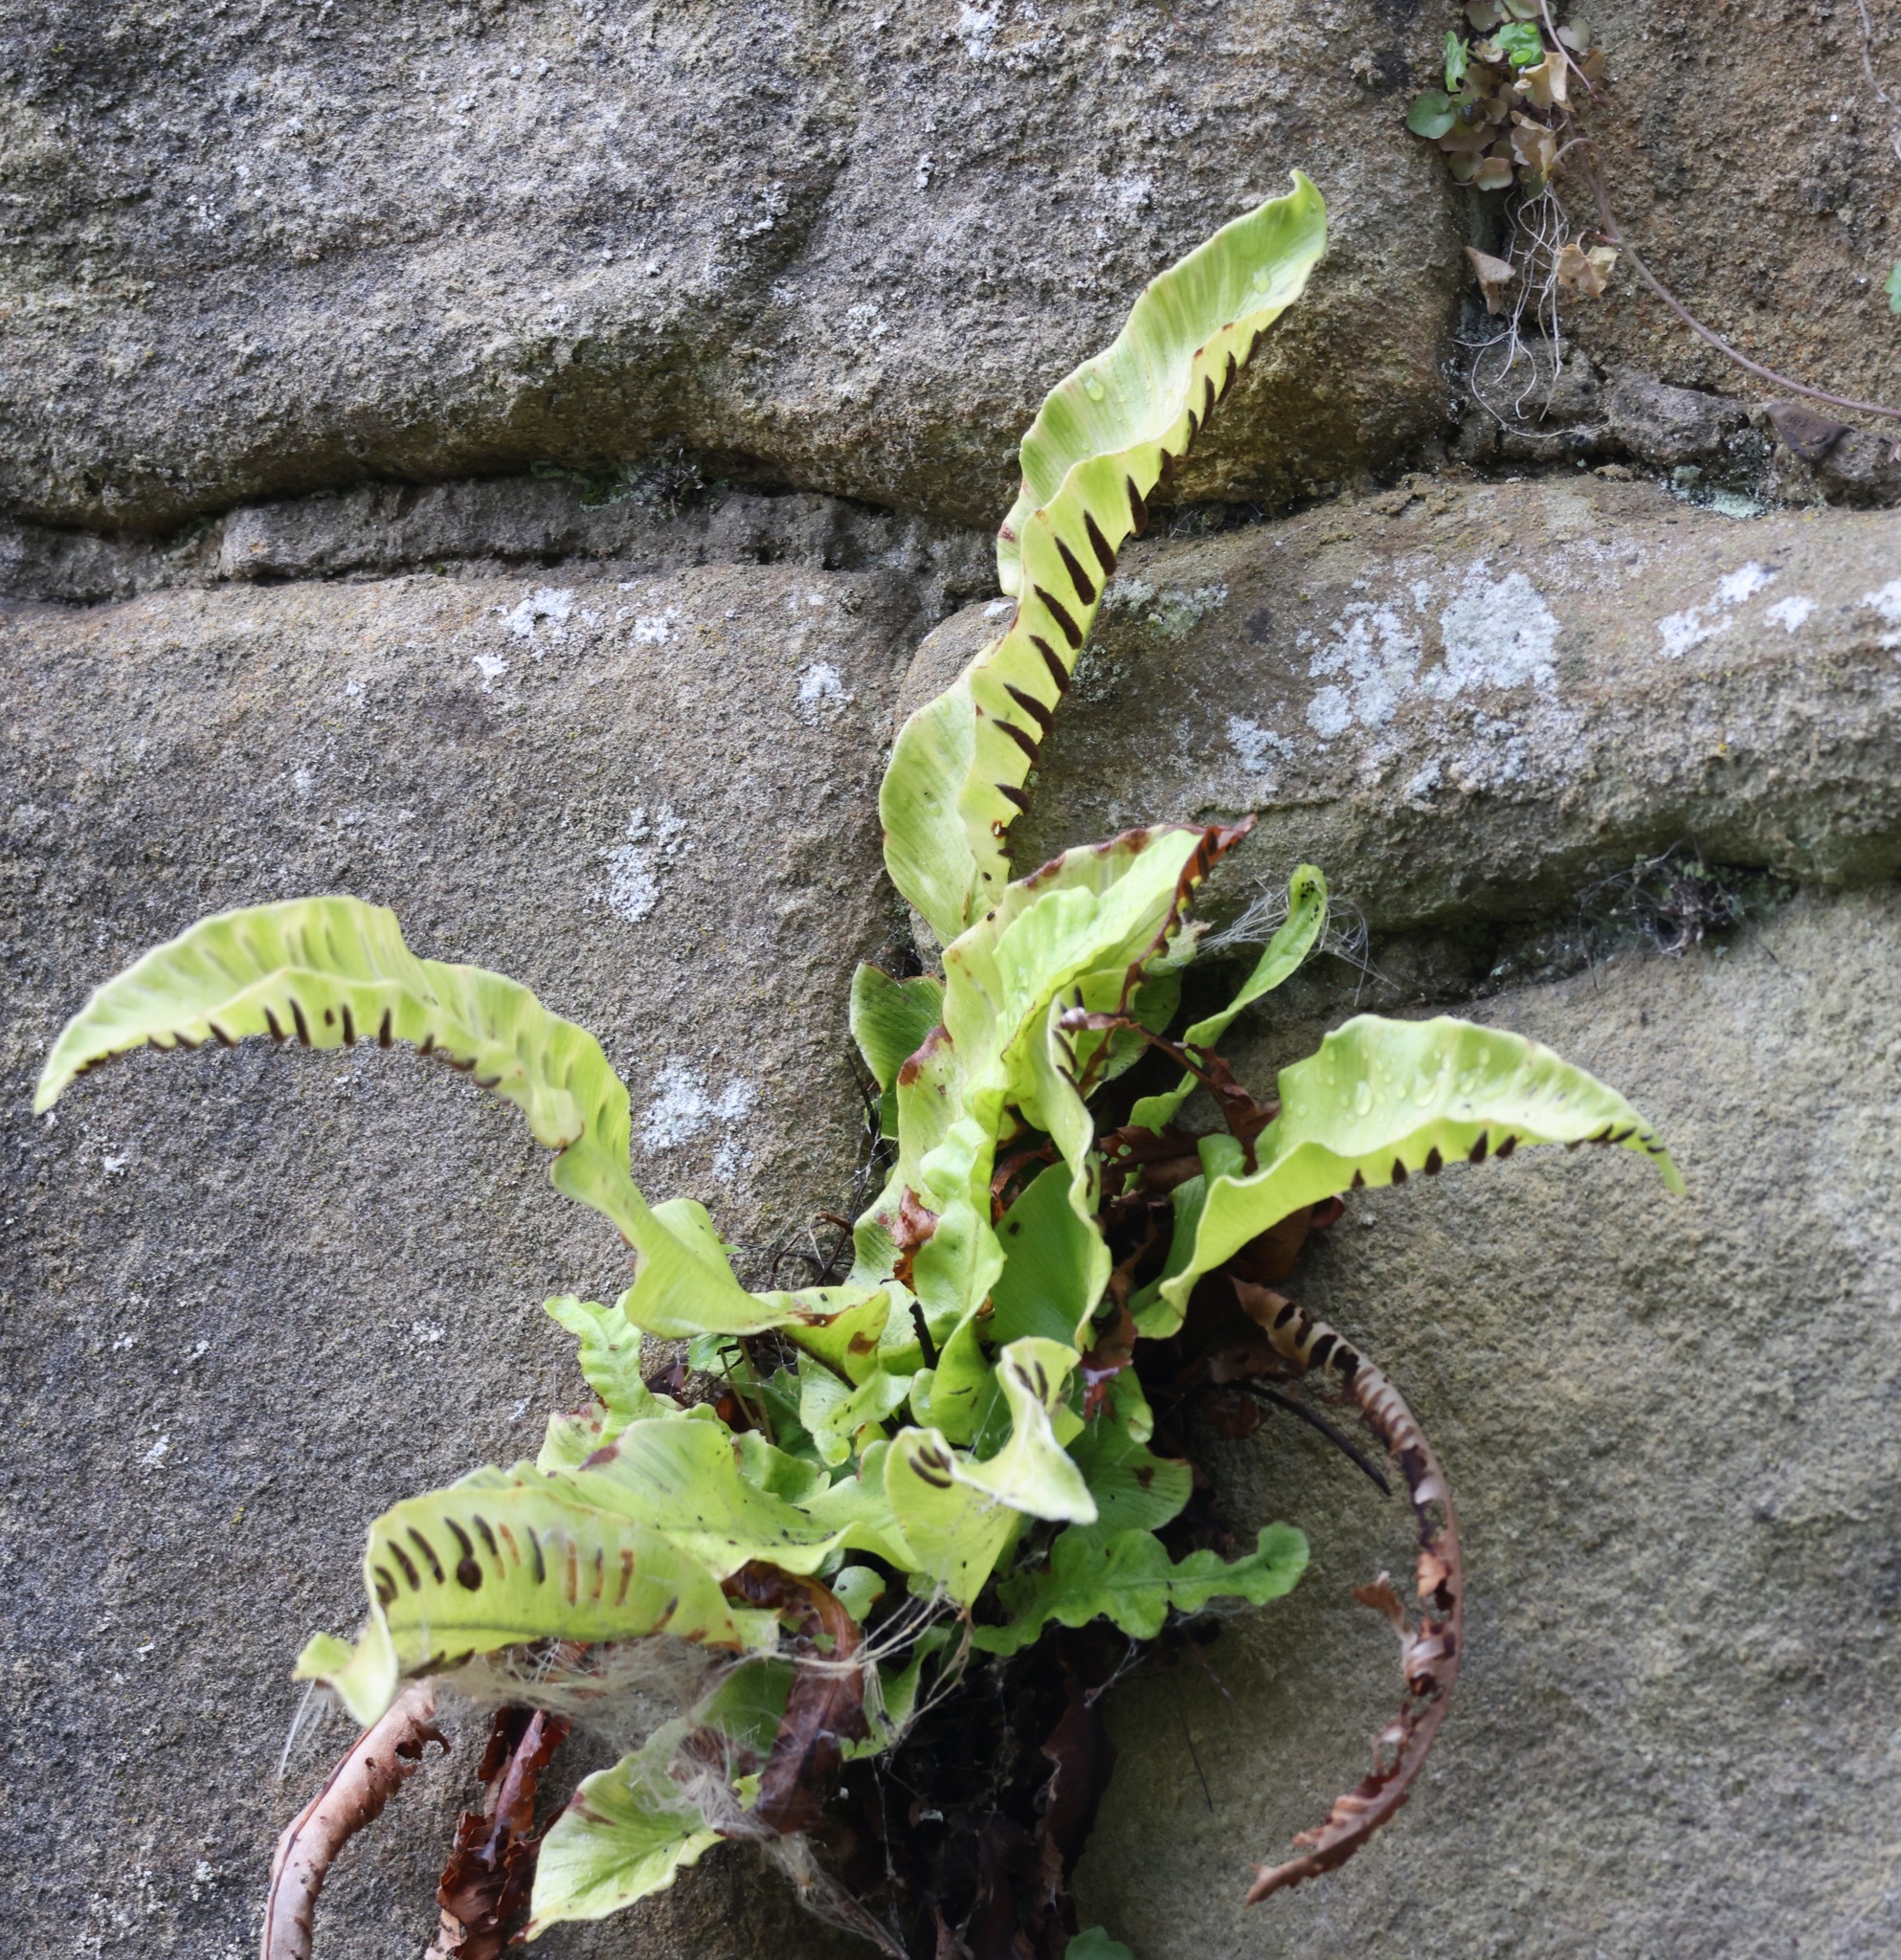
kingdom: Plantae
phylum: Tracheophyta
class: Polypodiopsida
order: Polypodiales
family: Aspleniaceae
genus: Asplenium
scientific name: Asplenium scolopendrium
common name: Hart's-tongue fern
